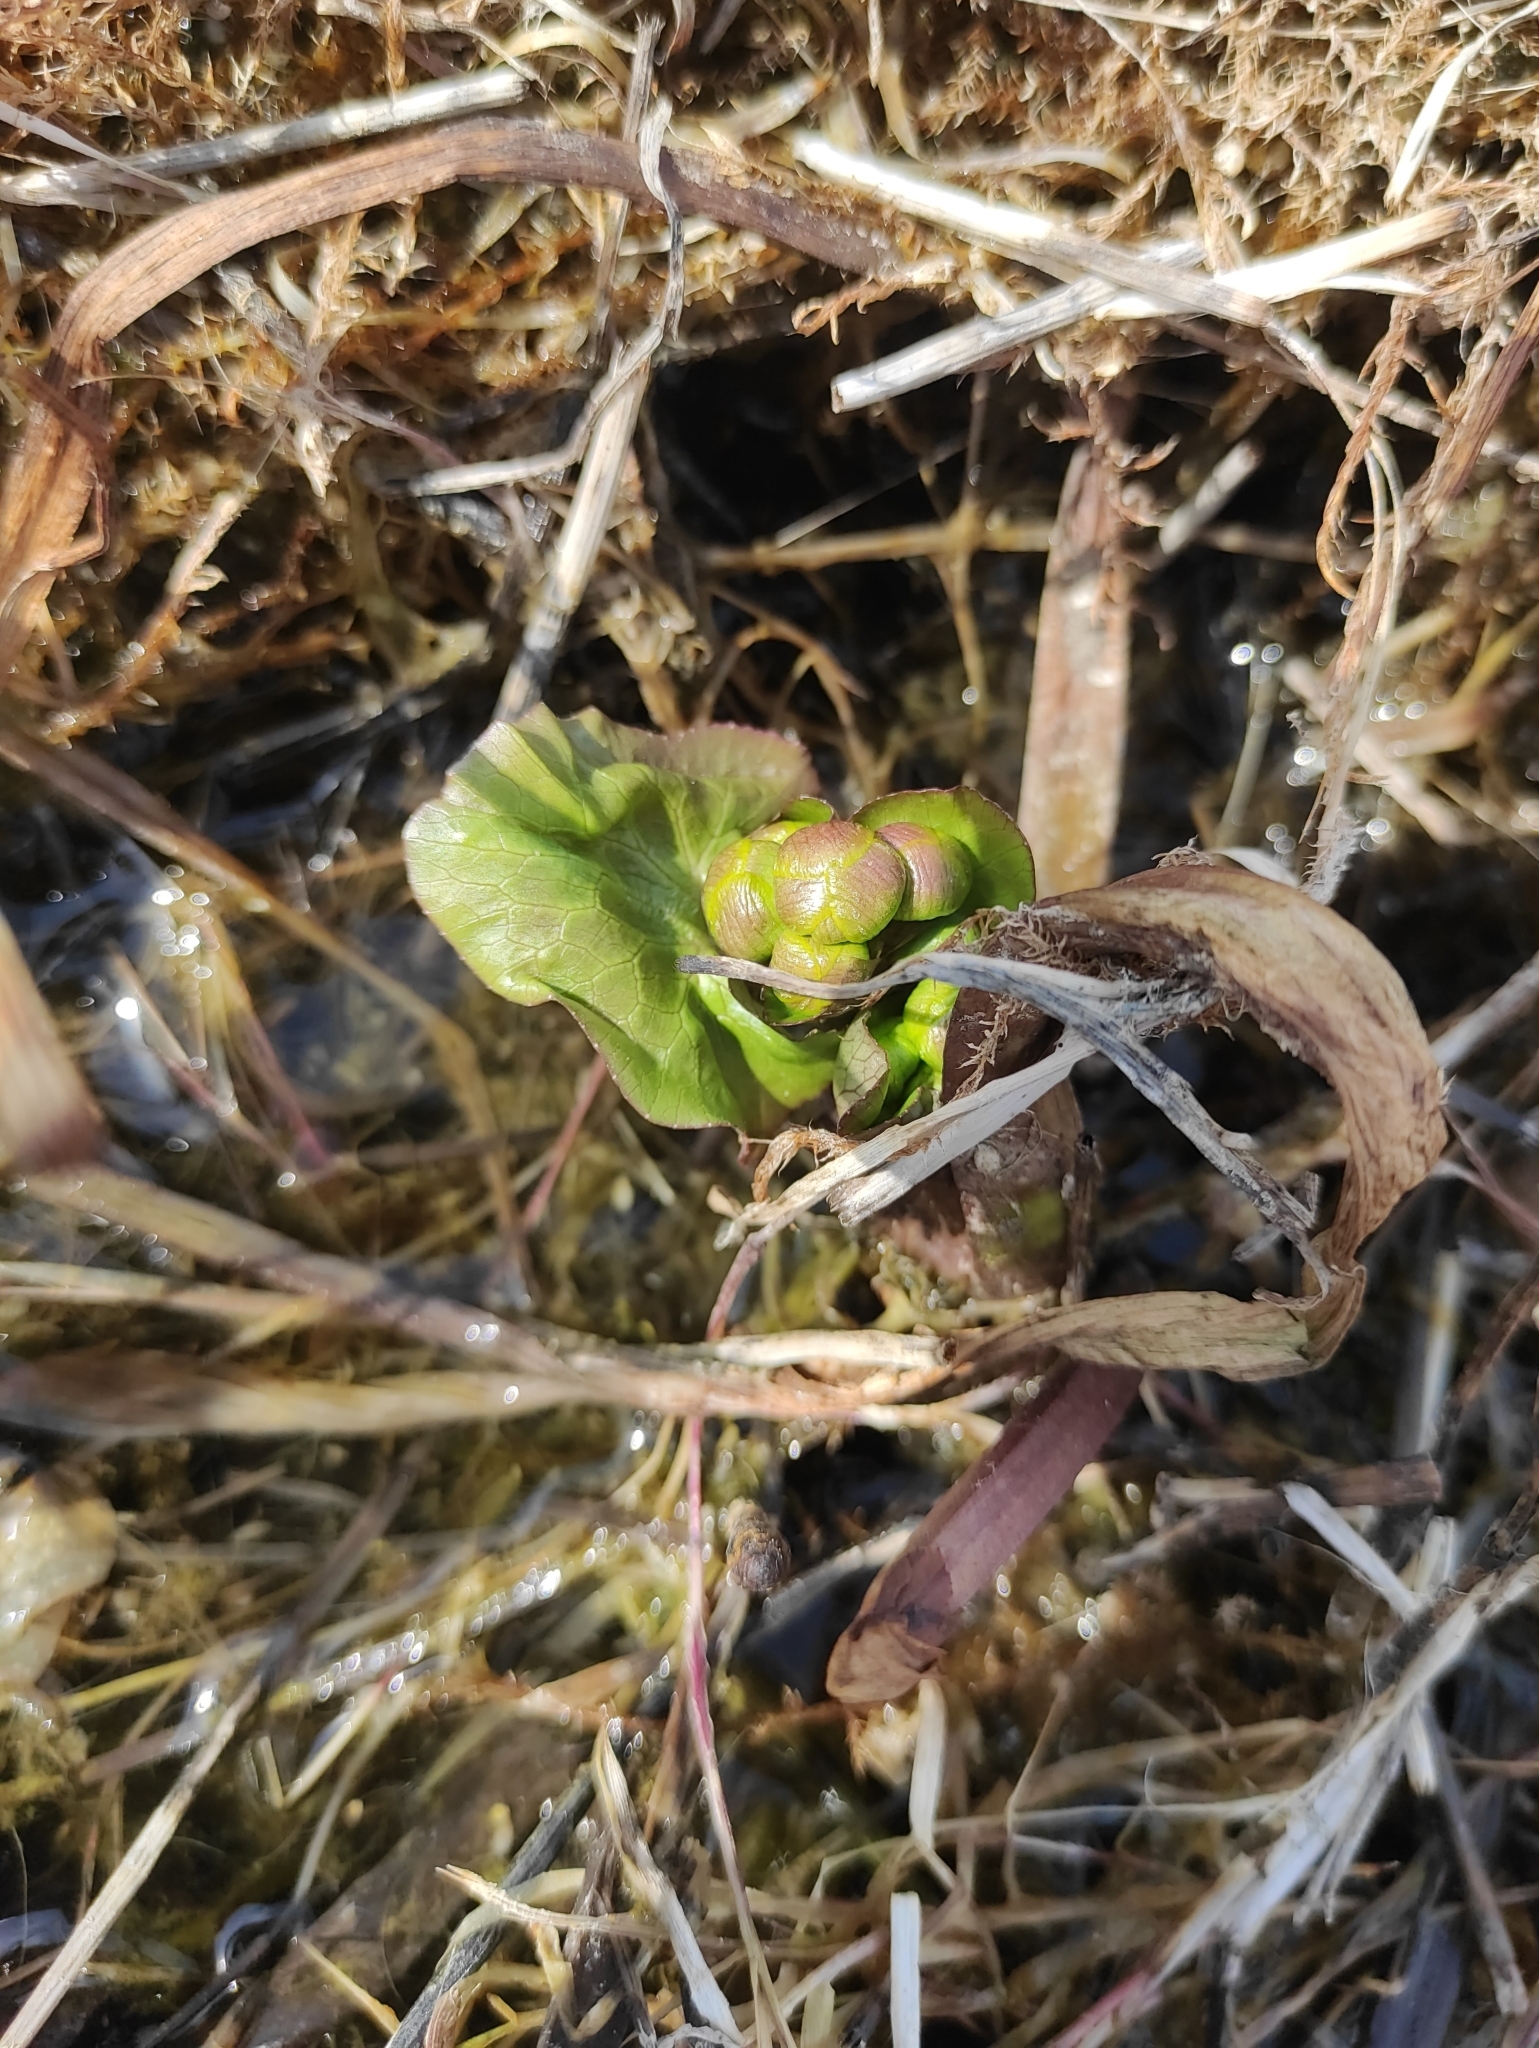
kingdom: Plantae
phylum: Tracheophyta
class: Magnoliopsida
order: Ranunculales
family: Ranunculaceae
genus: Caltha
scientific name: Caltha palustris
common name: Marsh marigold
